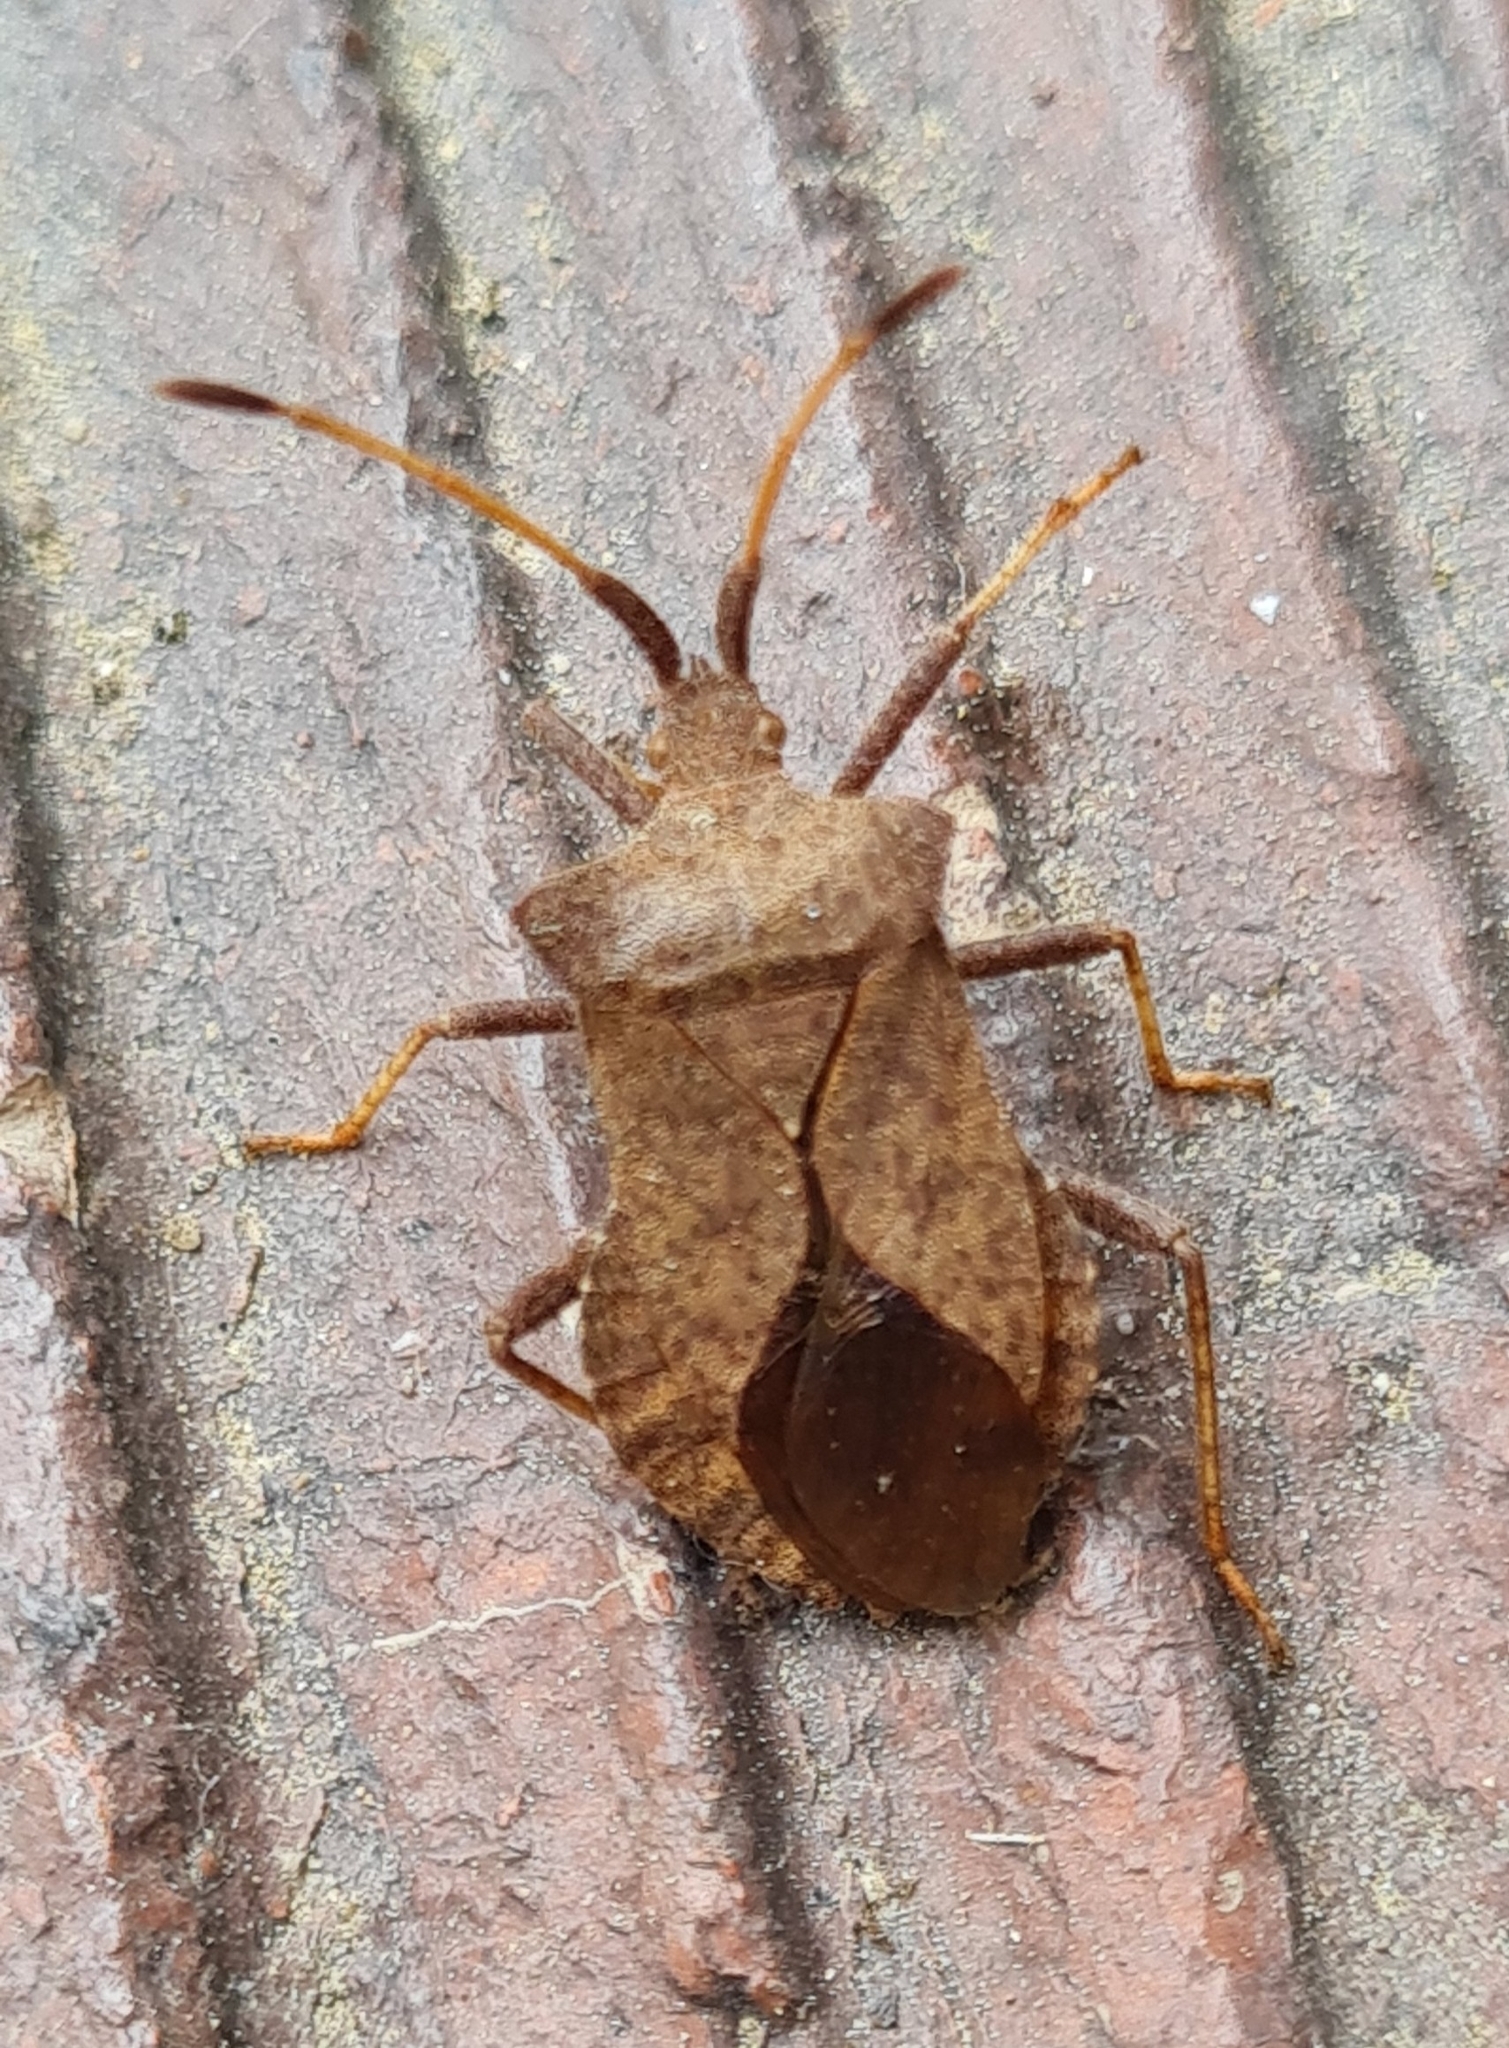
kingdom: Animalia
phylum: Arthropoda
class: Insecta
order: Hemiptera
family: Coreidae
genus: Coreus
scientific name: Coreus marginatus
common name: Dock bug
